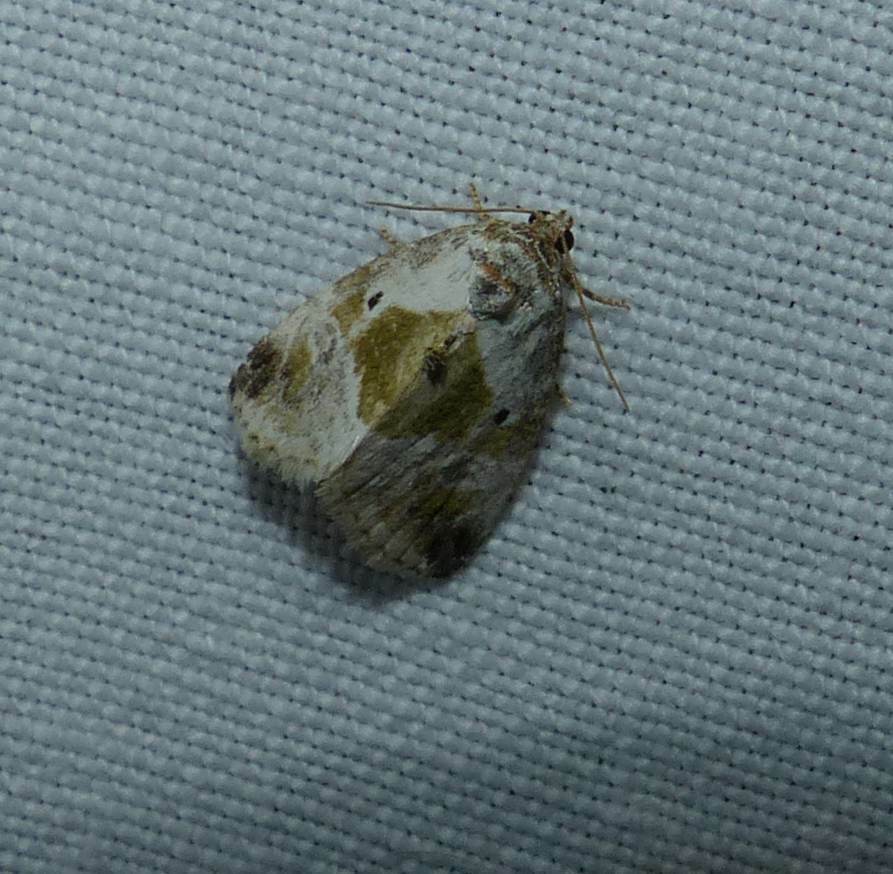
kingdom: Animalia
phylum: Arthropoda
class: Insecta
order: Lepidoptera
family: Noctuidae
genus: Maliattha
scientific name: Maliattha synochitis
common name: Black-dotted glyph
